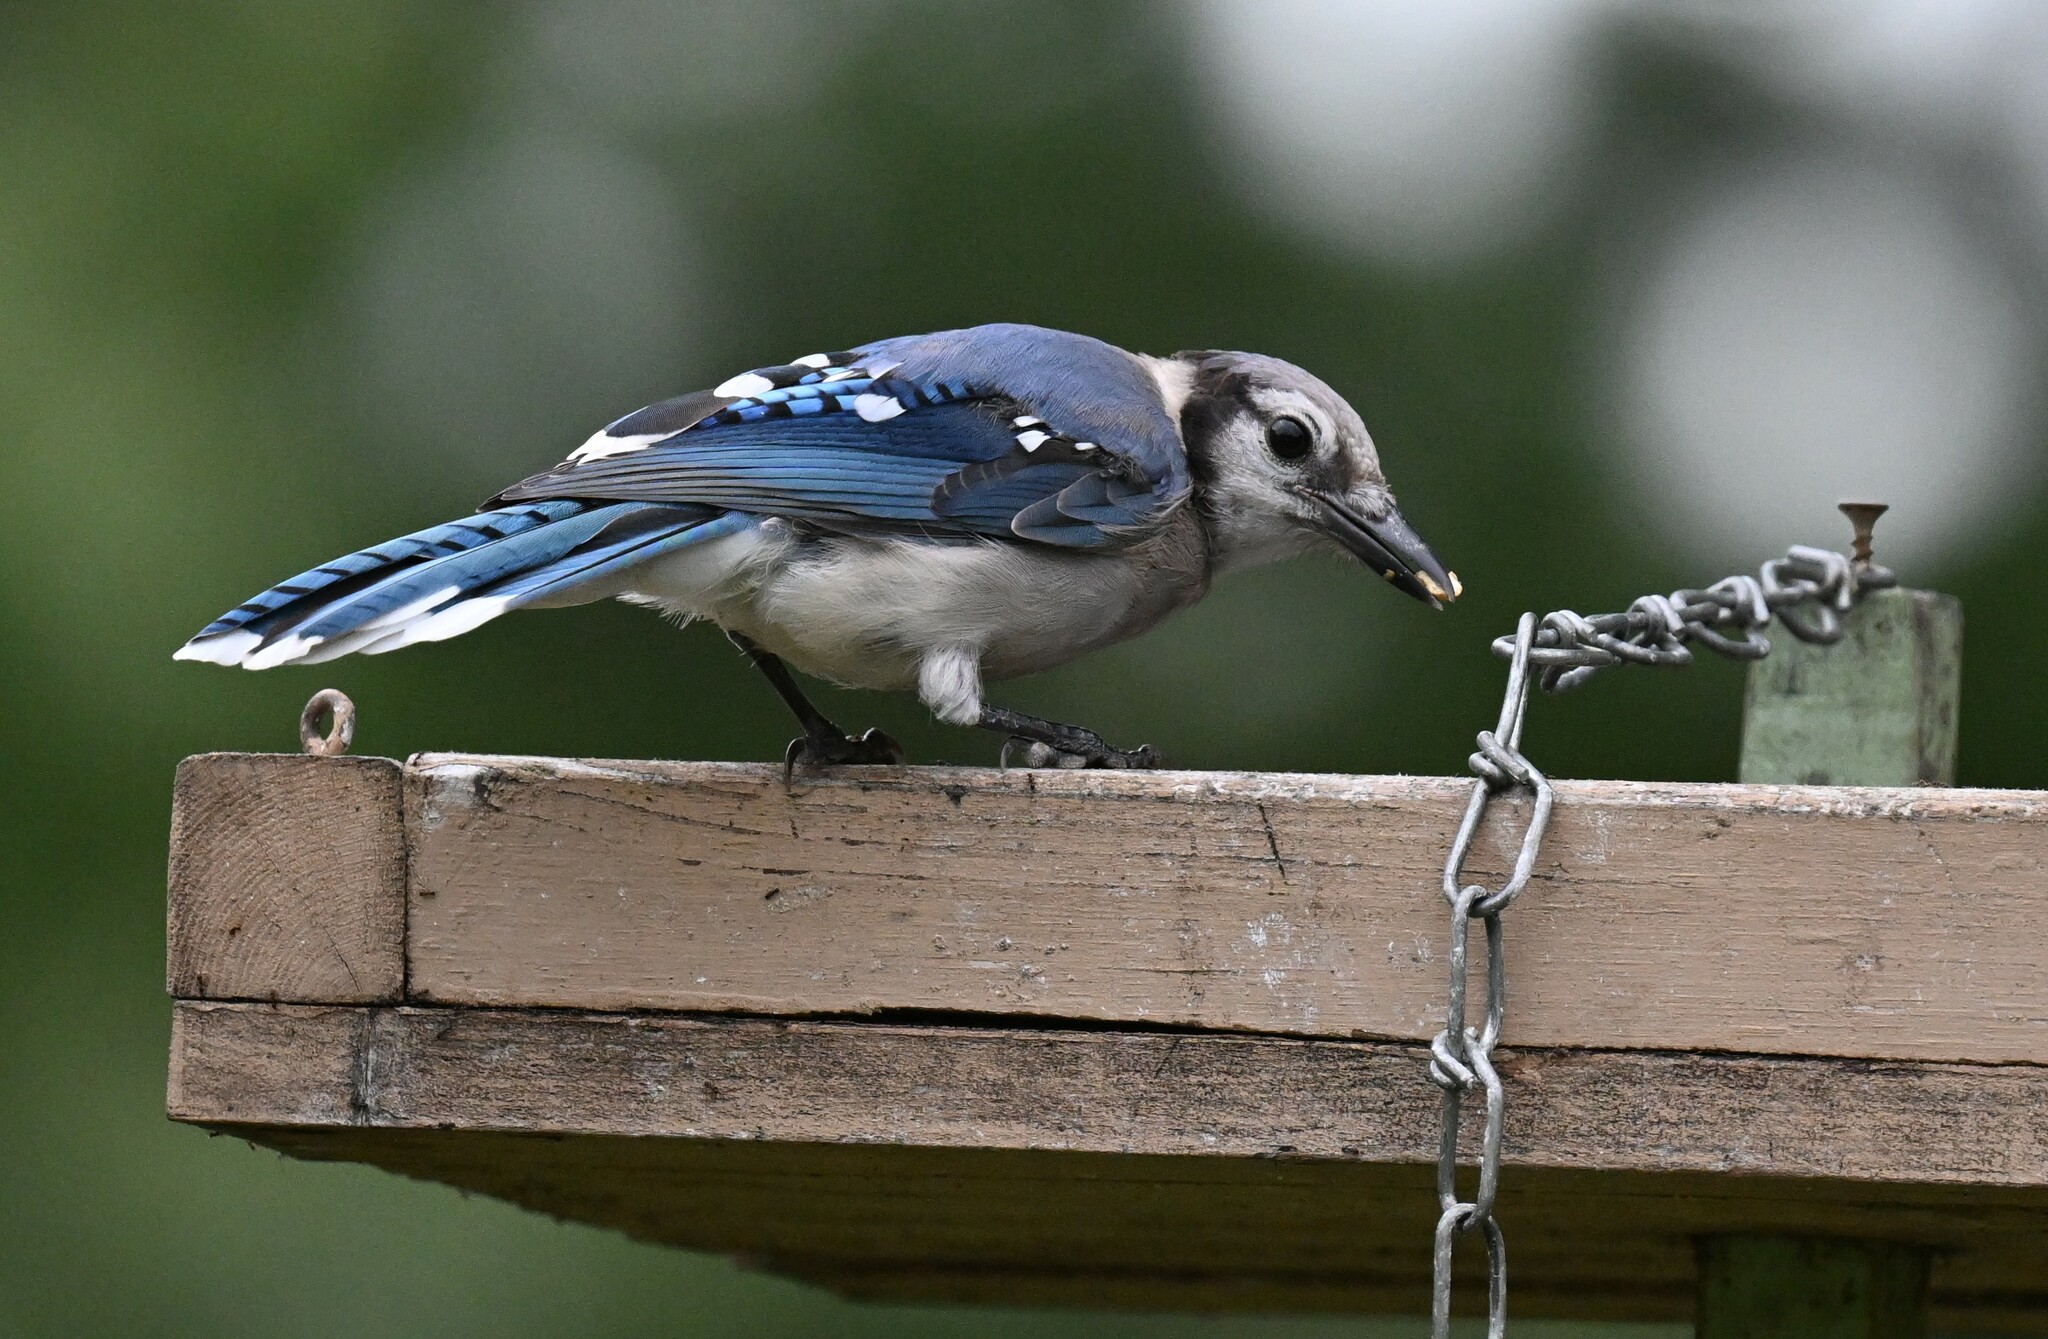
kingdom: Animalia
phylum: Chordata
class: Aves
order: Passeriformes
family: Corvidae
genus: Cyanocitta
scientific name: Cyanocitta cristata
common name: Blue jay
